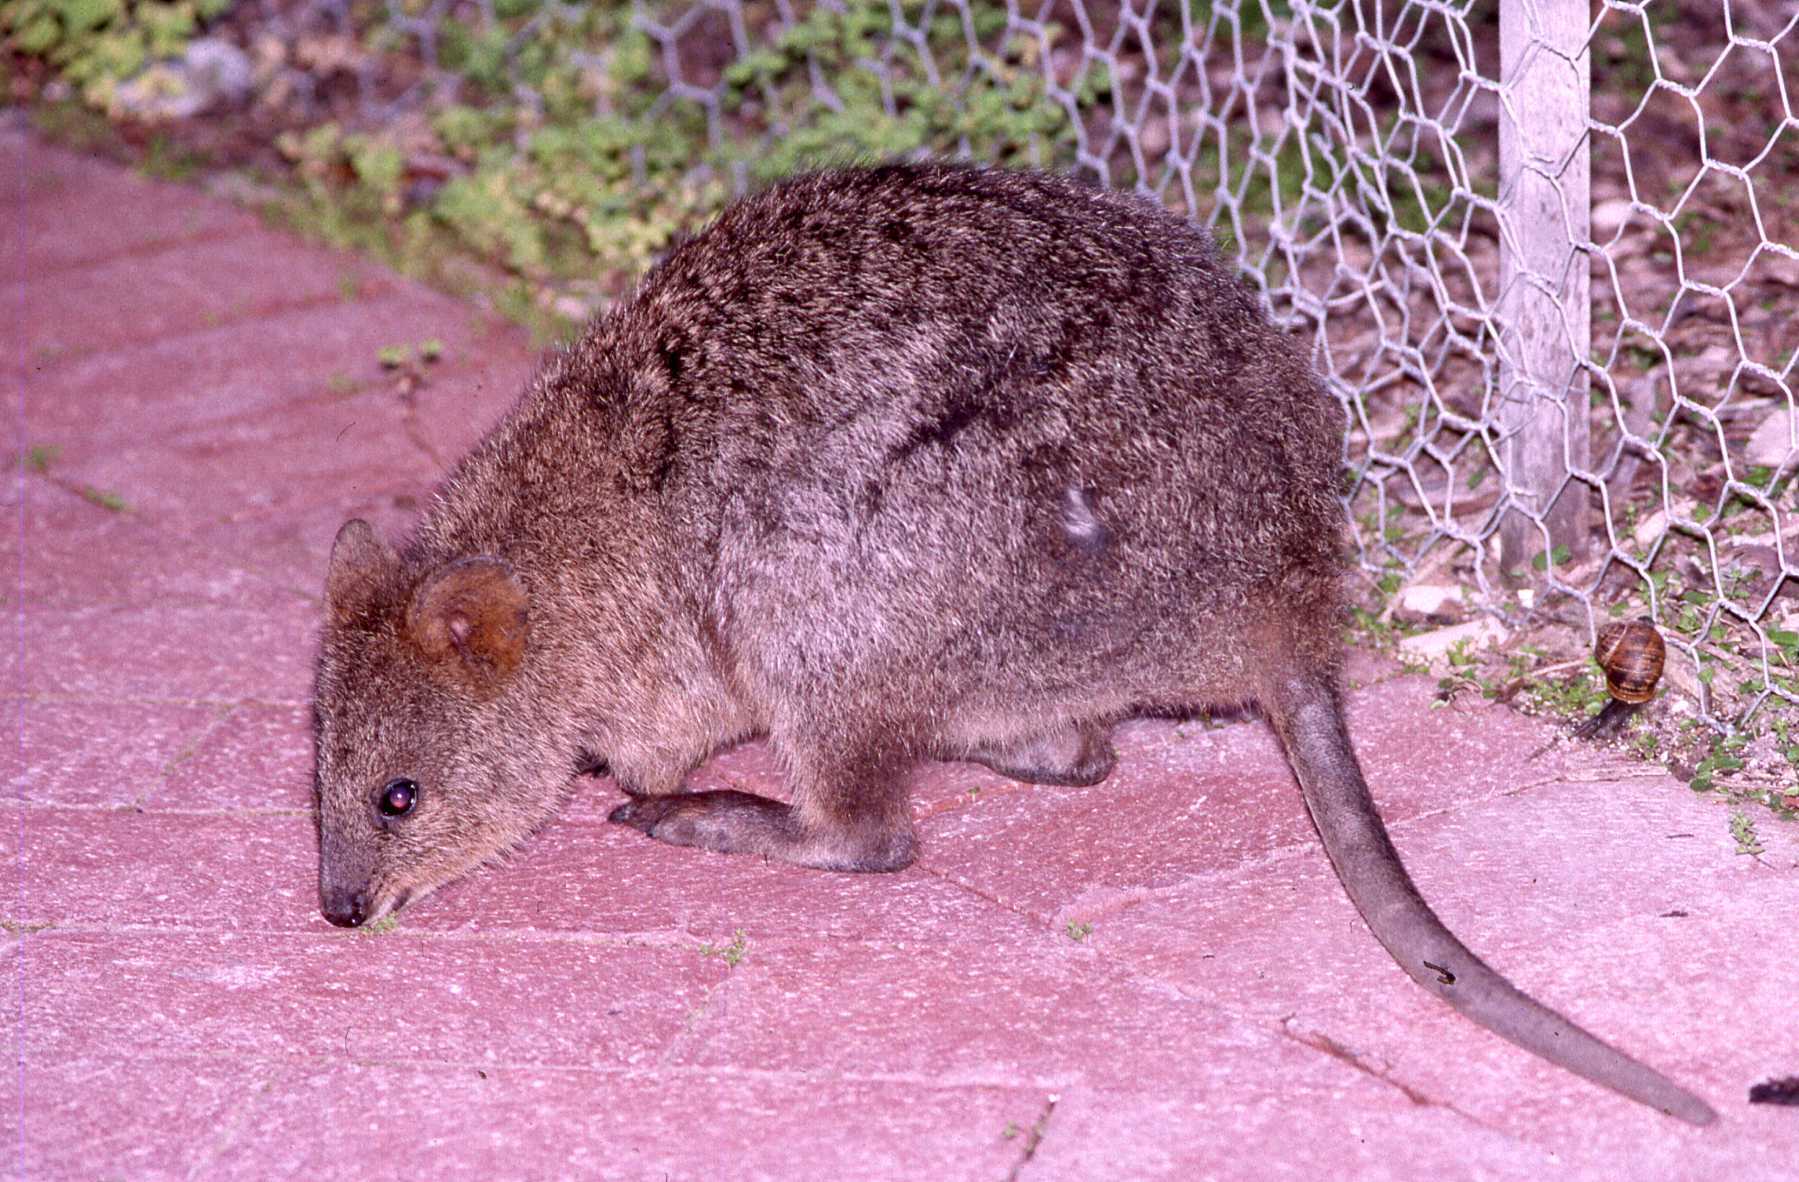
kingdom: Animalia
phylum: Chordata
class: Mammalia
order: Diprotodontia
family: Macropodidae
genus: Setonix
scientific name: Setonix brachyurus
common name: Quokka
